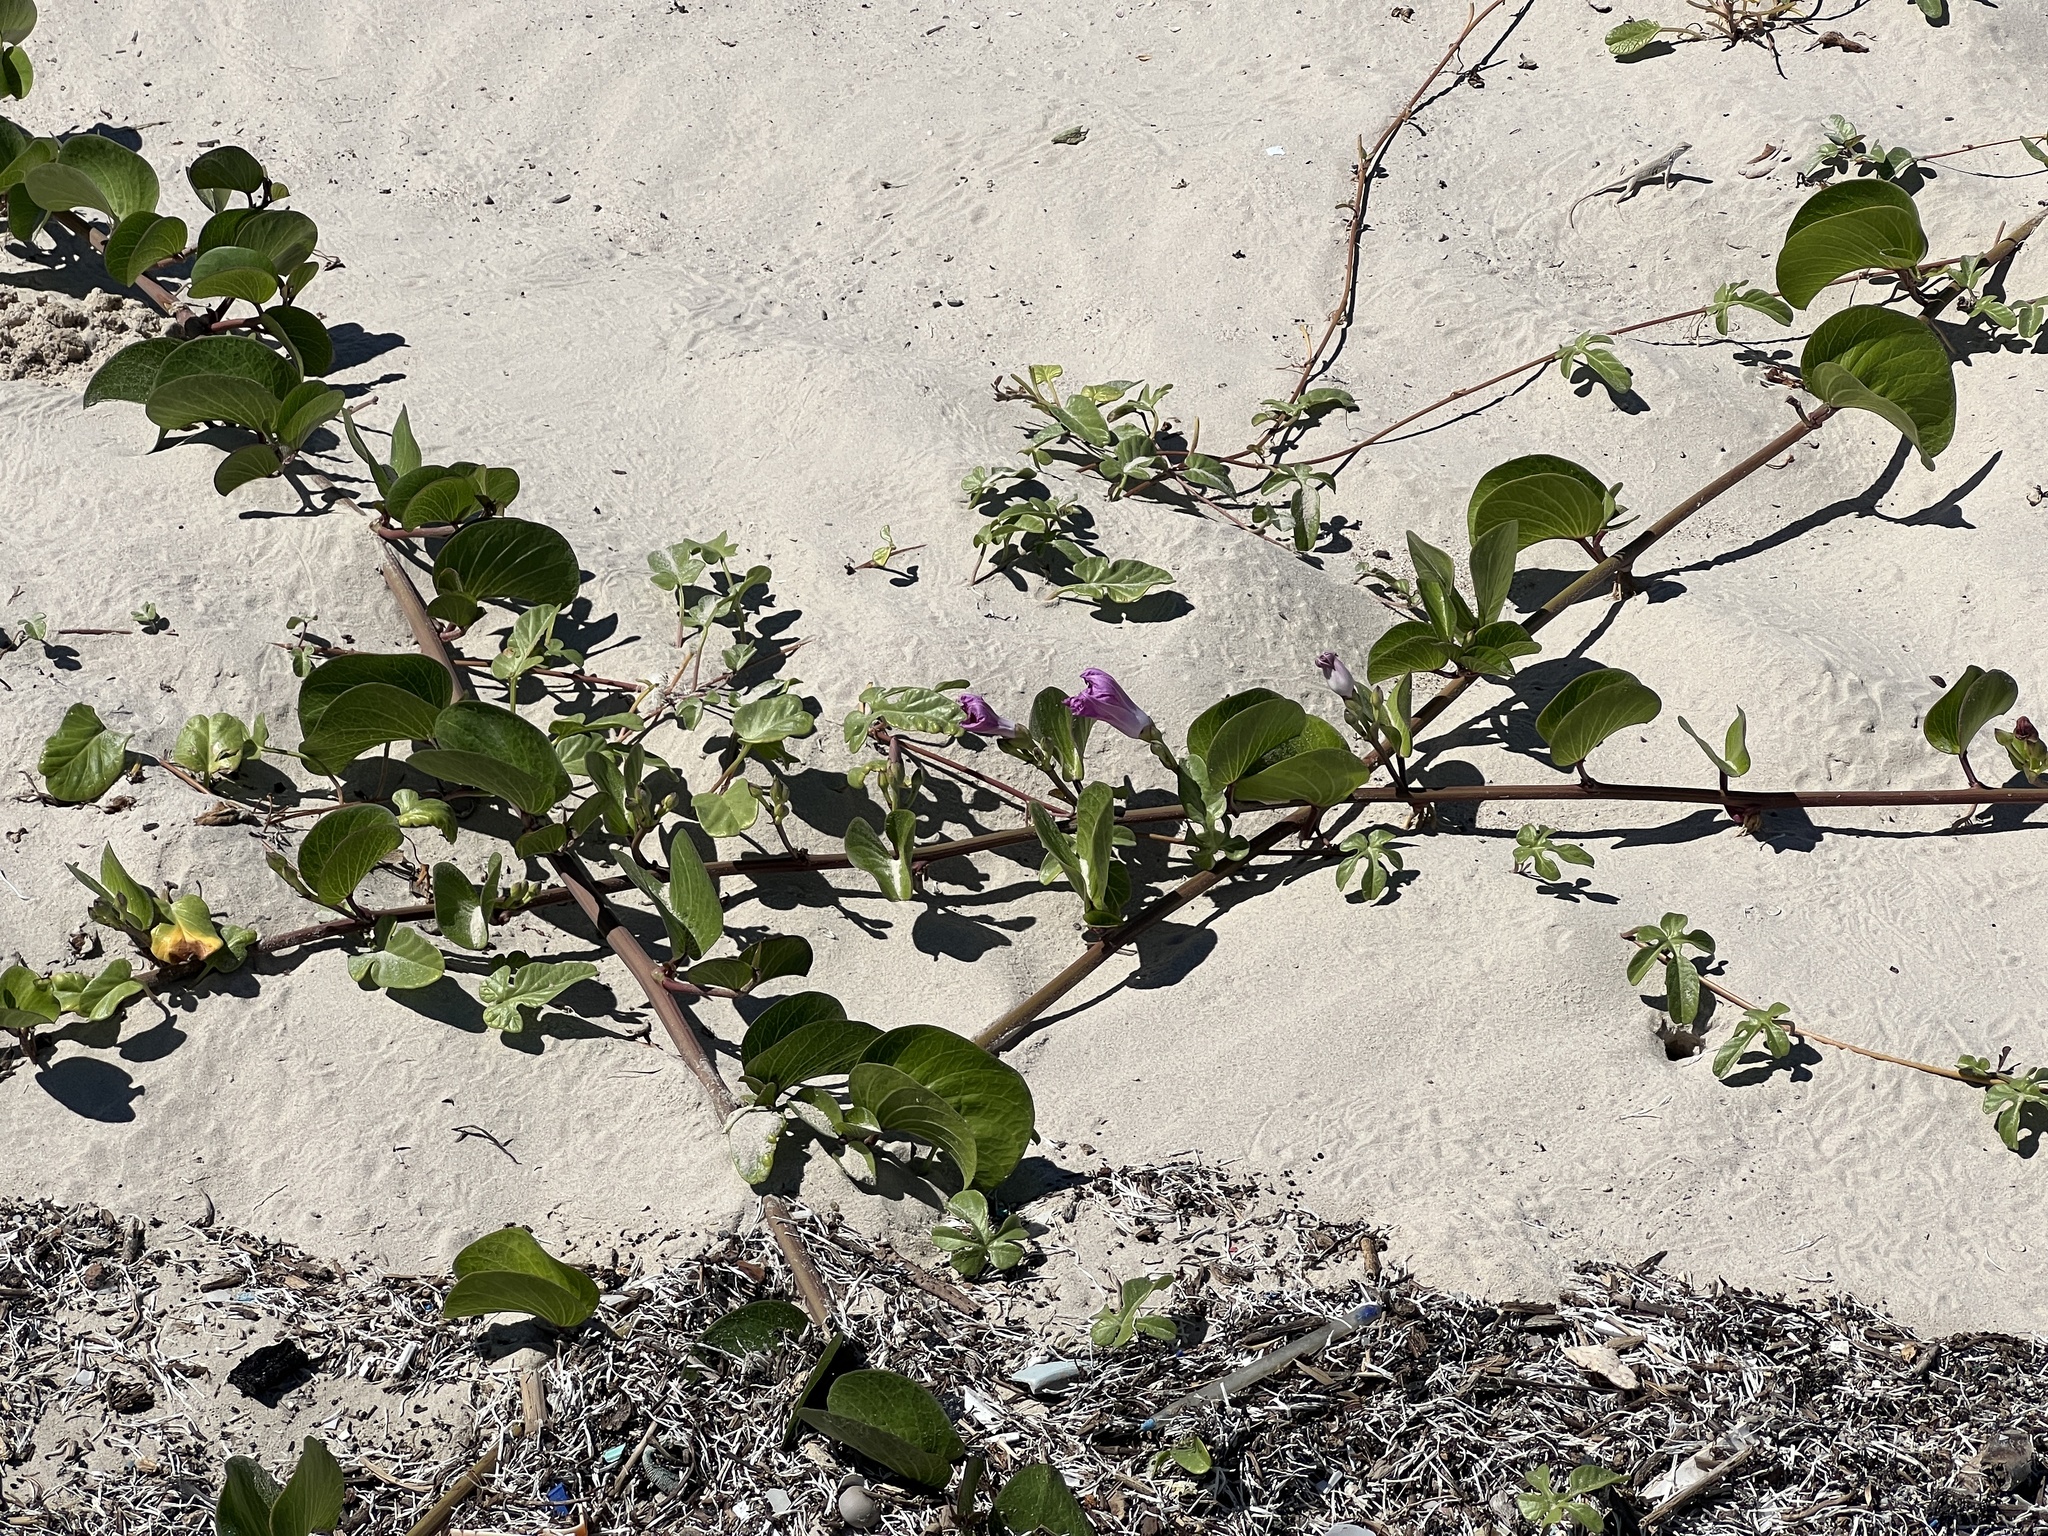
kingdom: Plantae
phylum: Tracheophyta
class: Magnoliopsida
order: Solanales
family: Convolvulaceae
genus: Ipomoea
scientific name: Ipomoea pes-caprae
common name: Beach morning glory
